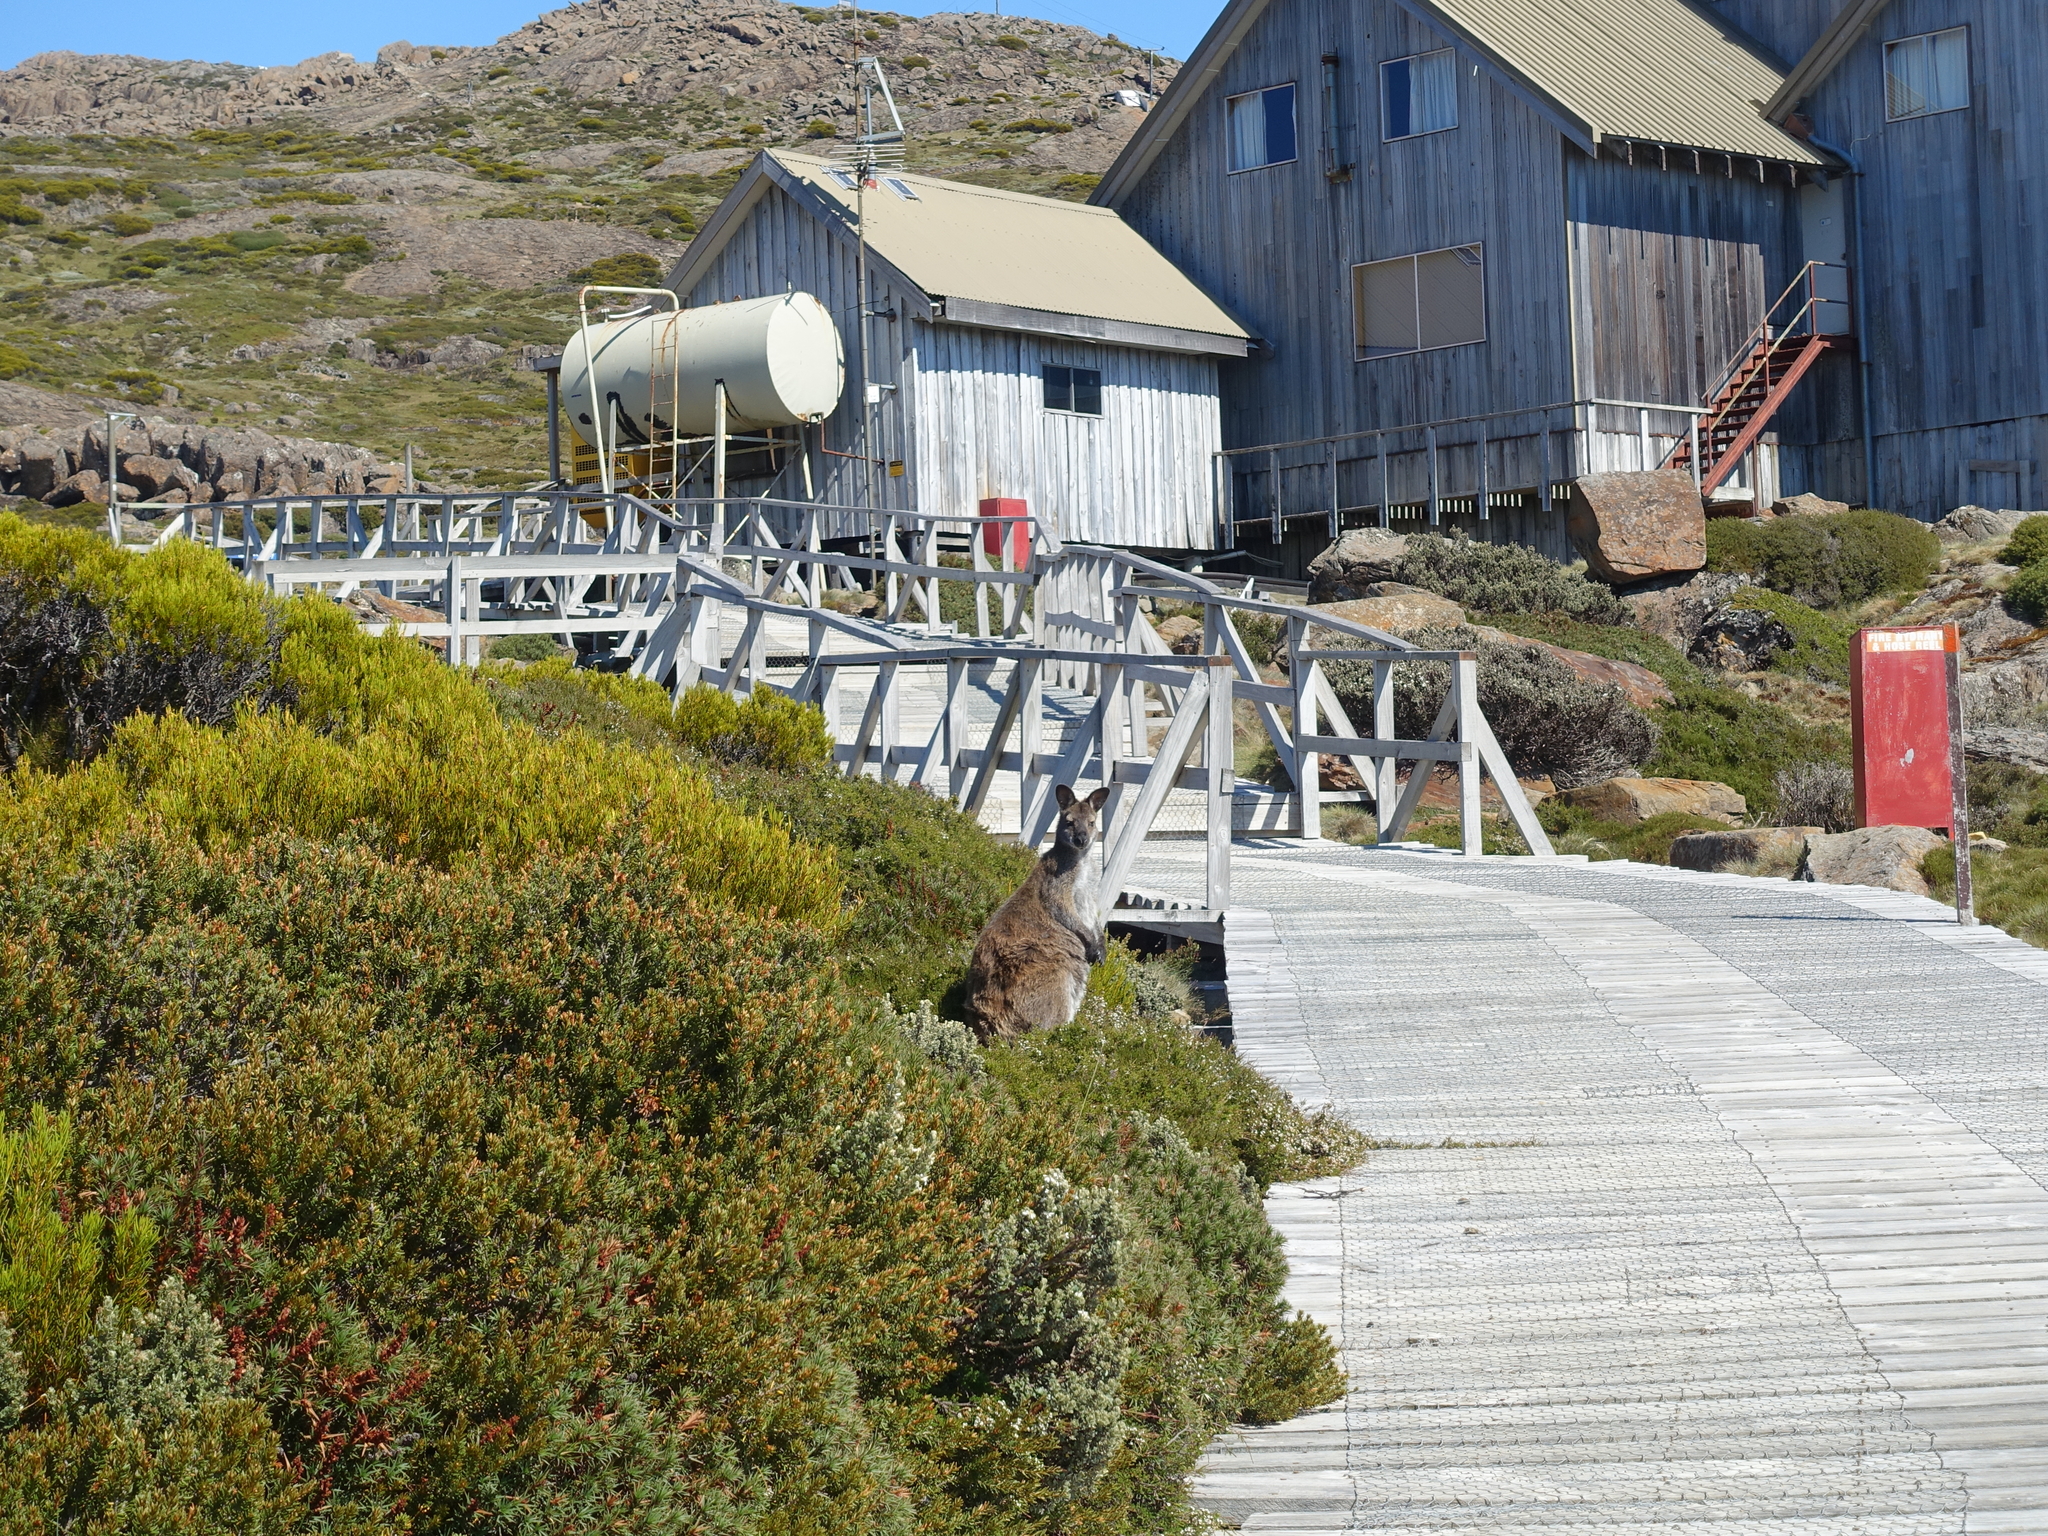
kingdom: Animalia
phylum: Chordata
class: Mammalia
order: Diprotodontia
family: Macropodidae
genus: Notamacropus
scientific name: Notamacropus rufogriseus
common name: Red-necked wallaby
